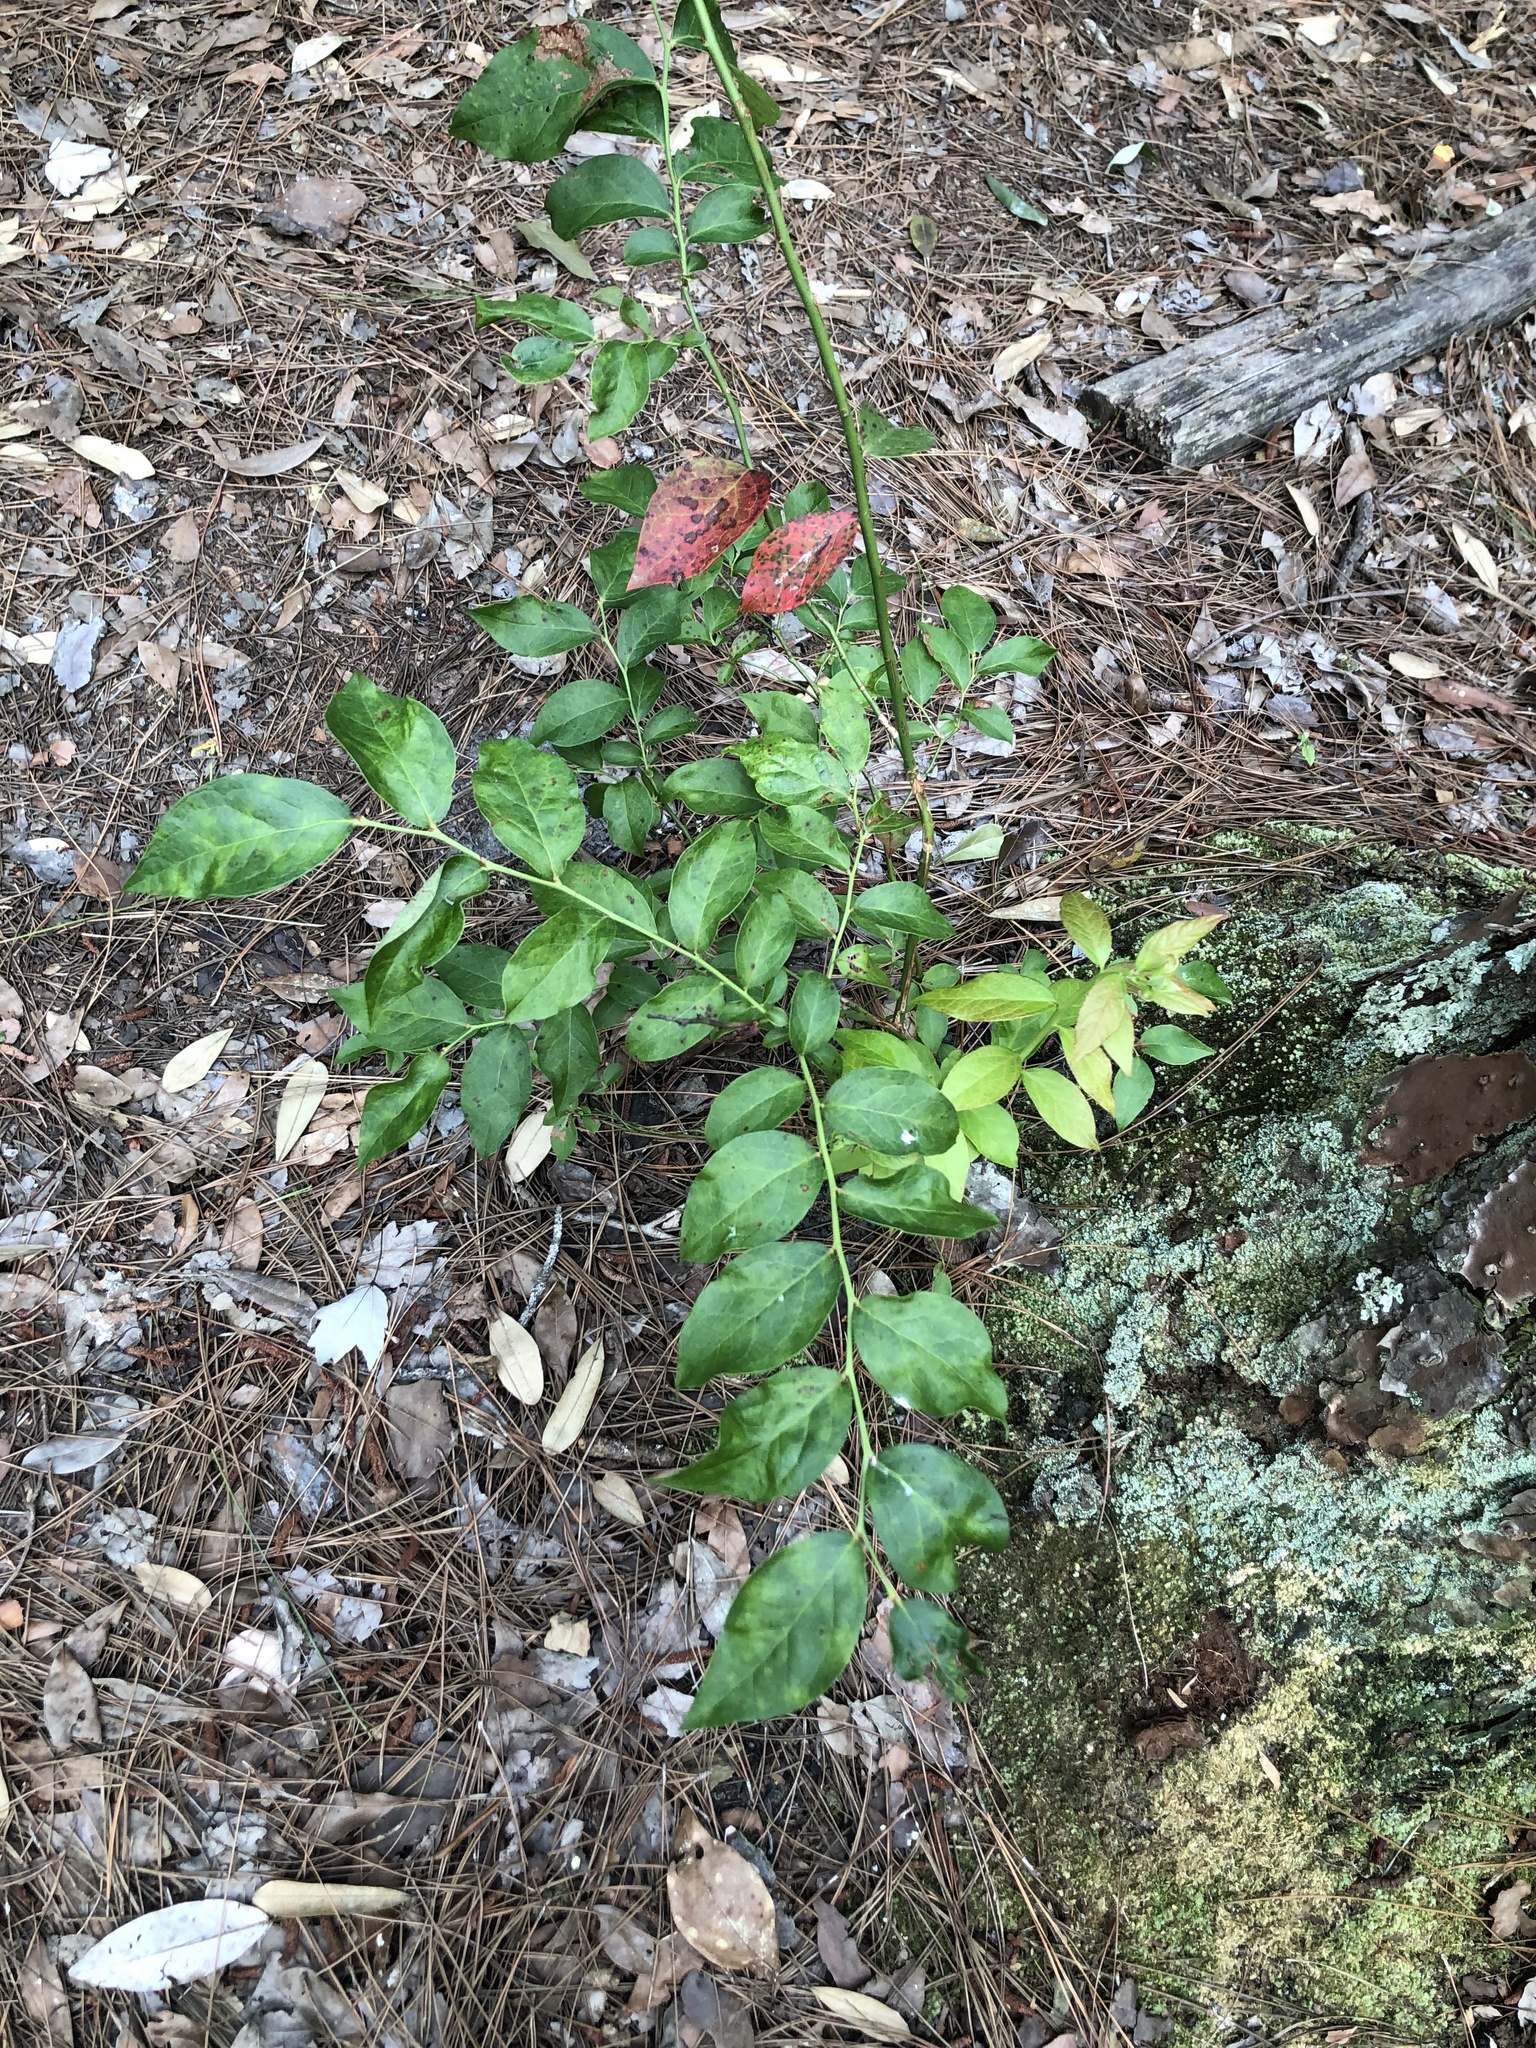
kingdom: Plantae
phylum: Tracheophyta
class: Magnoliopsida
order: Ericales
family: Ericaceae
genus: Vaccinium
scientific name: Vaccinium corymbosum
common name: Blueberry
